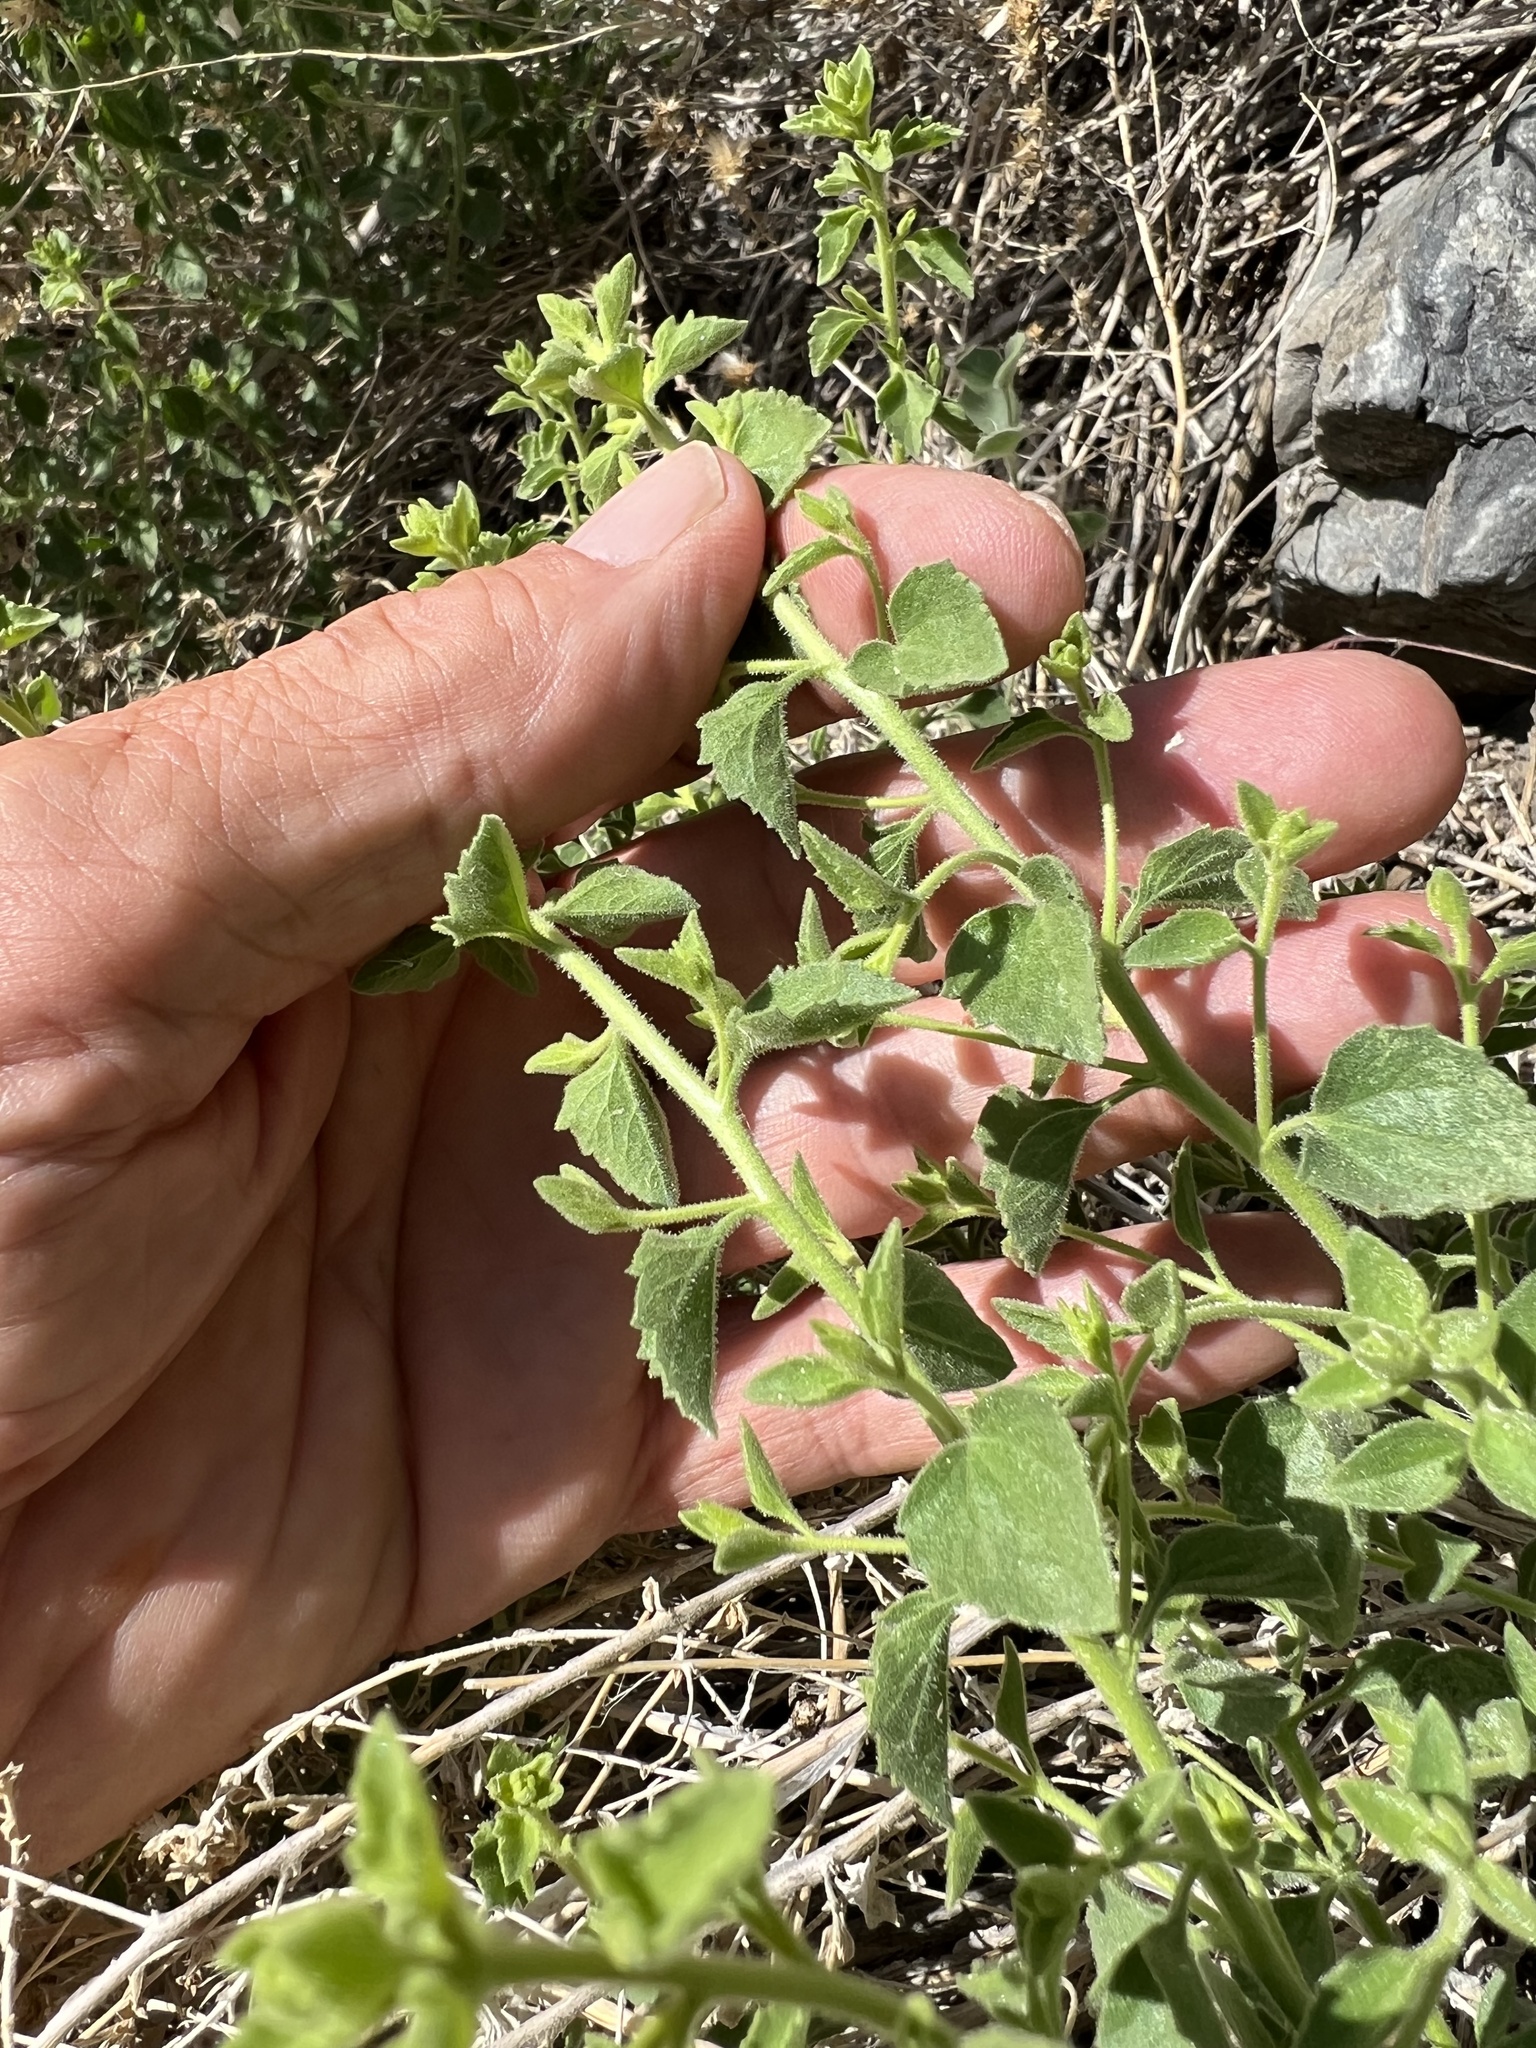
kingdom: Plantae
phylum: Tracheophyta
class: Magnoliopsida
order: Asterales
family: Asteraceae
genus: Brickellia
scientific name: Brickellia microphylla
